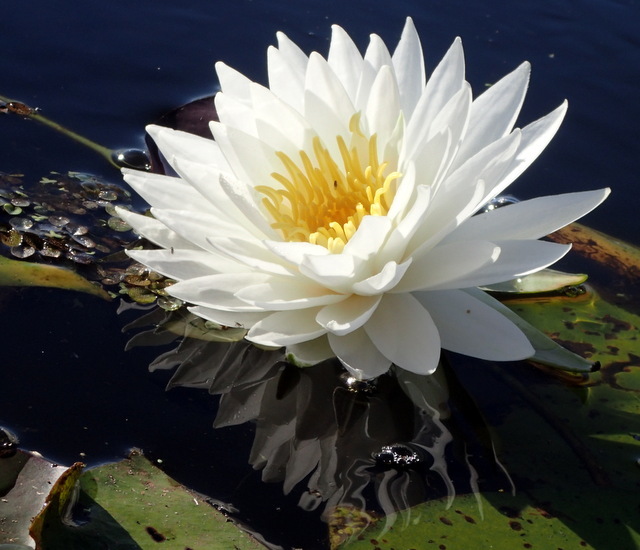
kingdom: Plantae
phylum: Tracheophyta
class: Magnoliopsida
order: Nymphaeales
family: Nymphaeaceae
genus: Nymphaea
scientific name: Nymphaea odorata
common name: Fragrant water-lily
